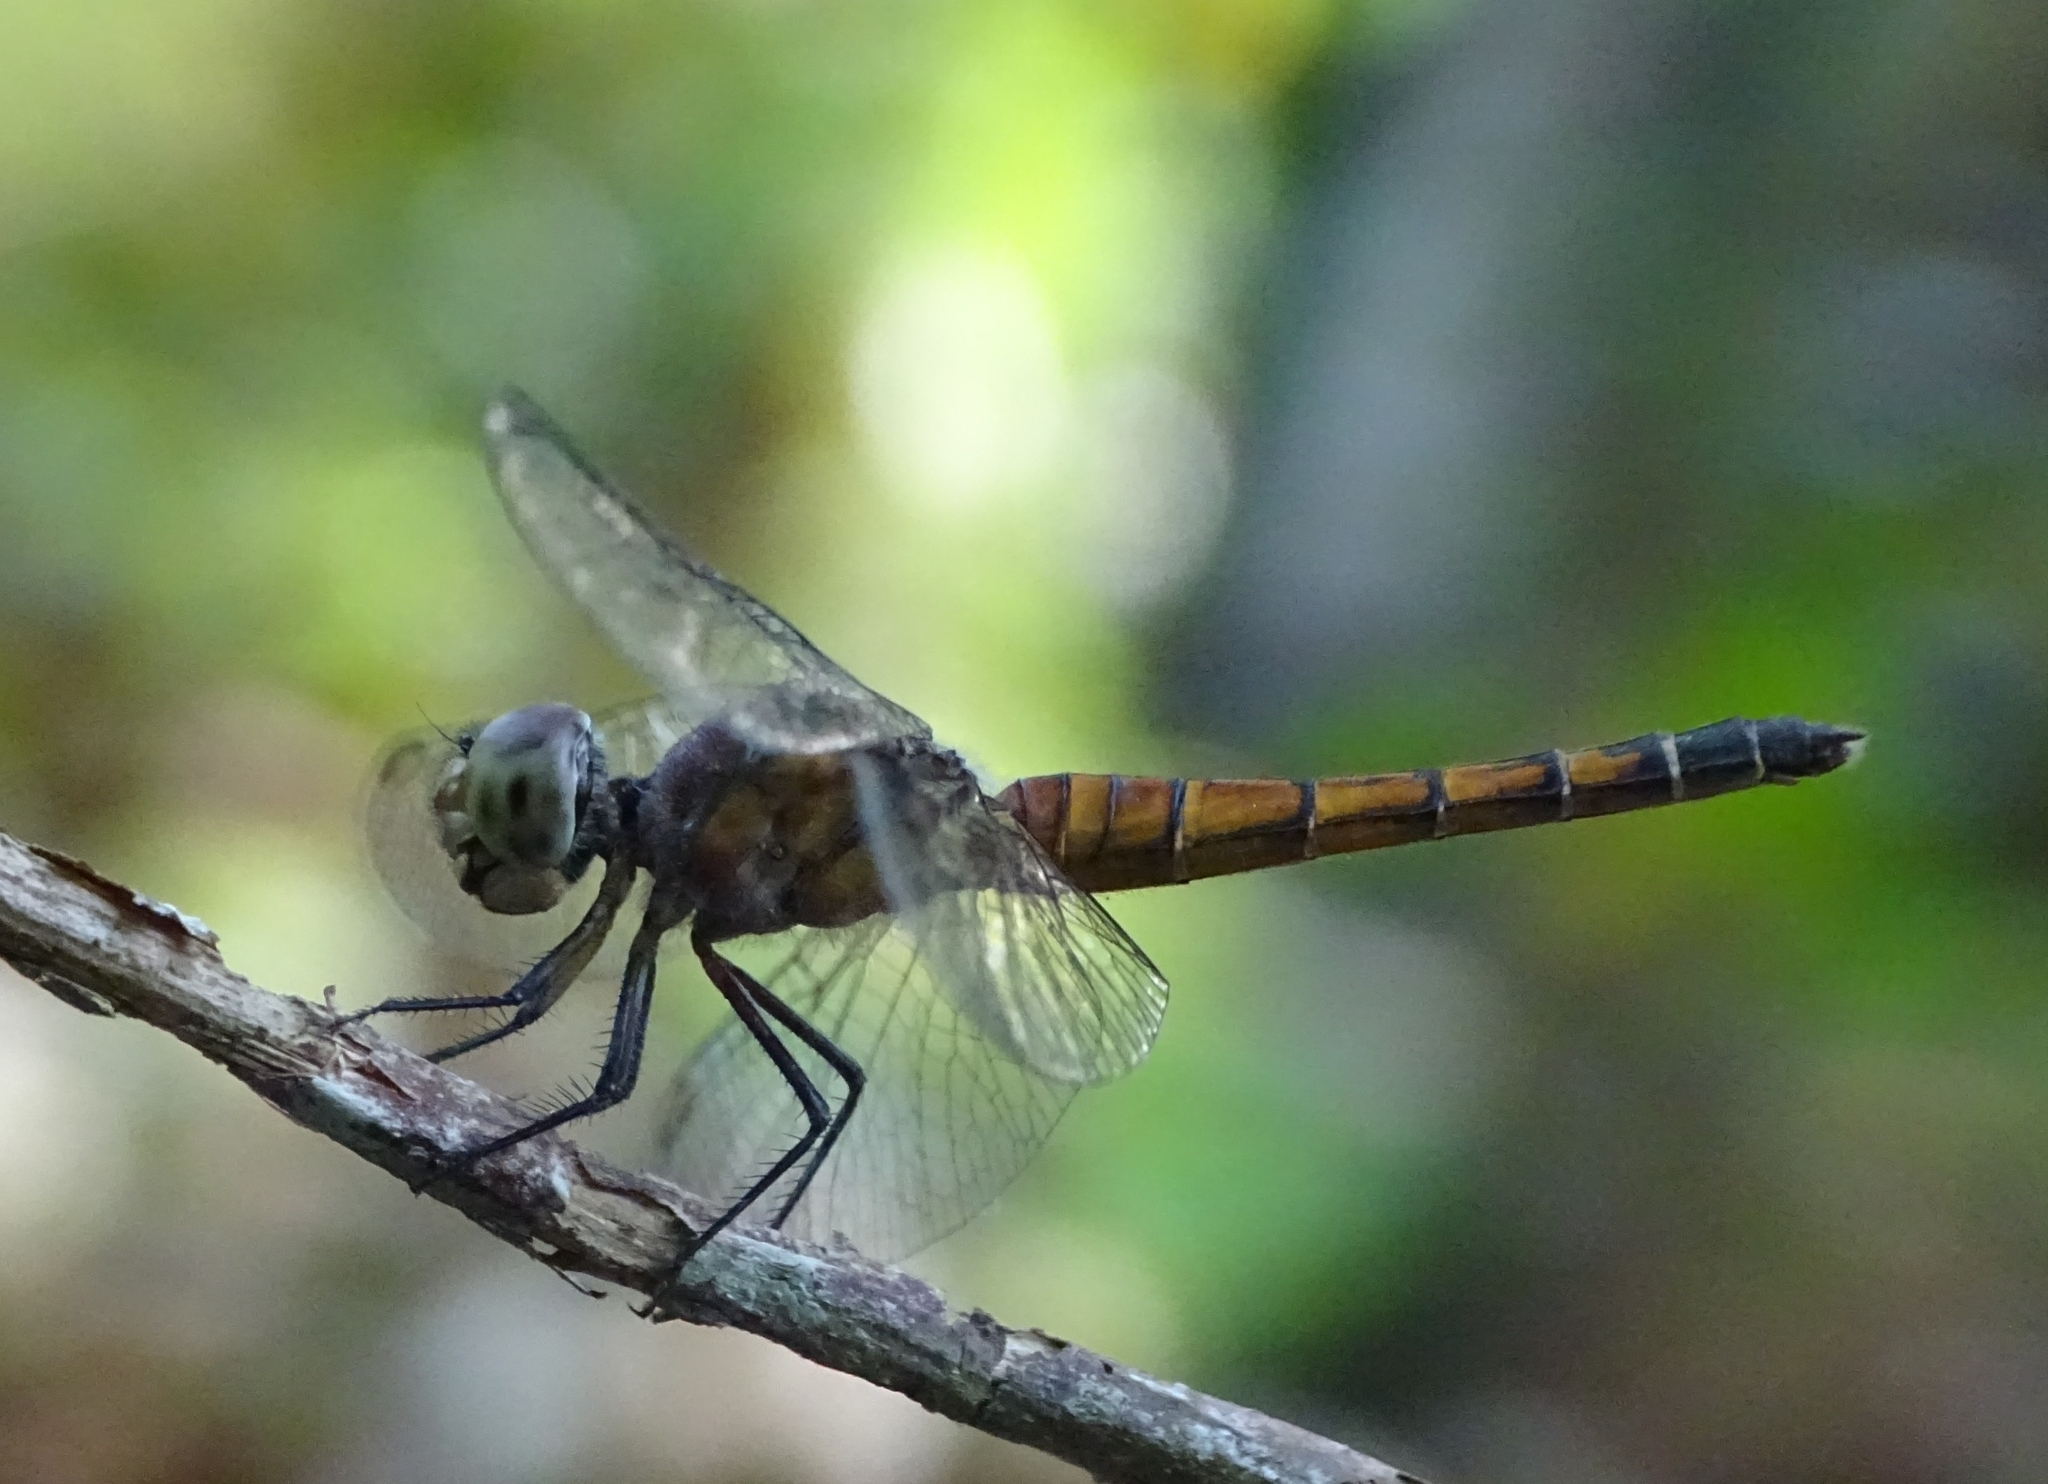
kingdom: Animalia
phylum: Arthropoda
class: Insecta
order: Odonata
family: Libellulidae
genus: Brachydiplax
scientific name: Brachydiplax chalybea
